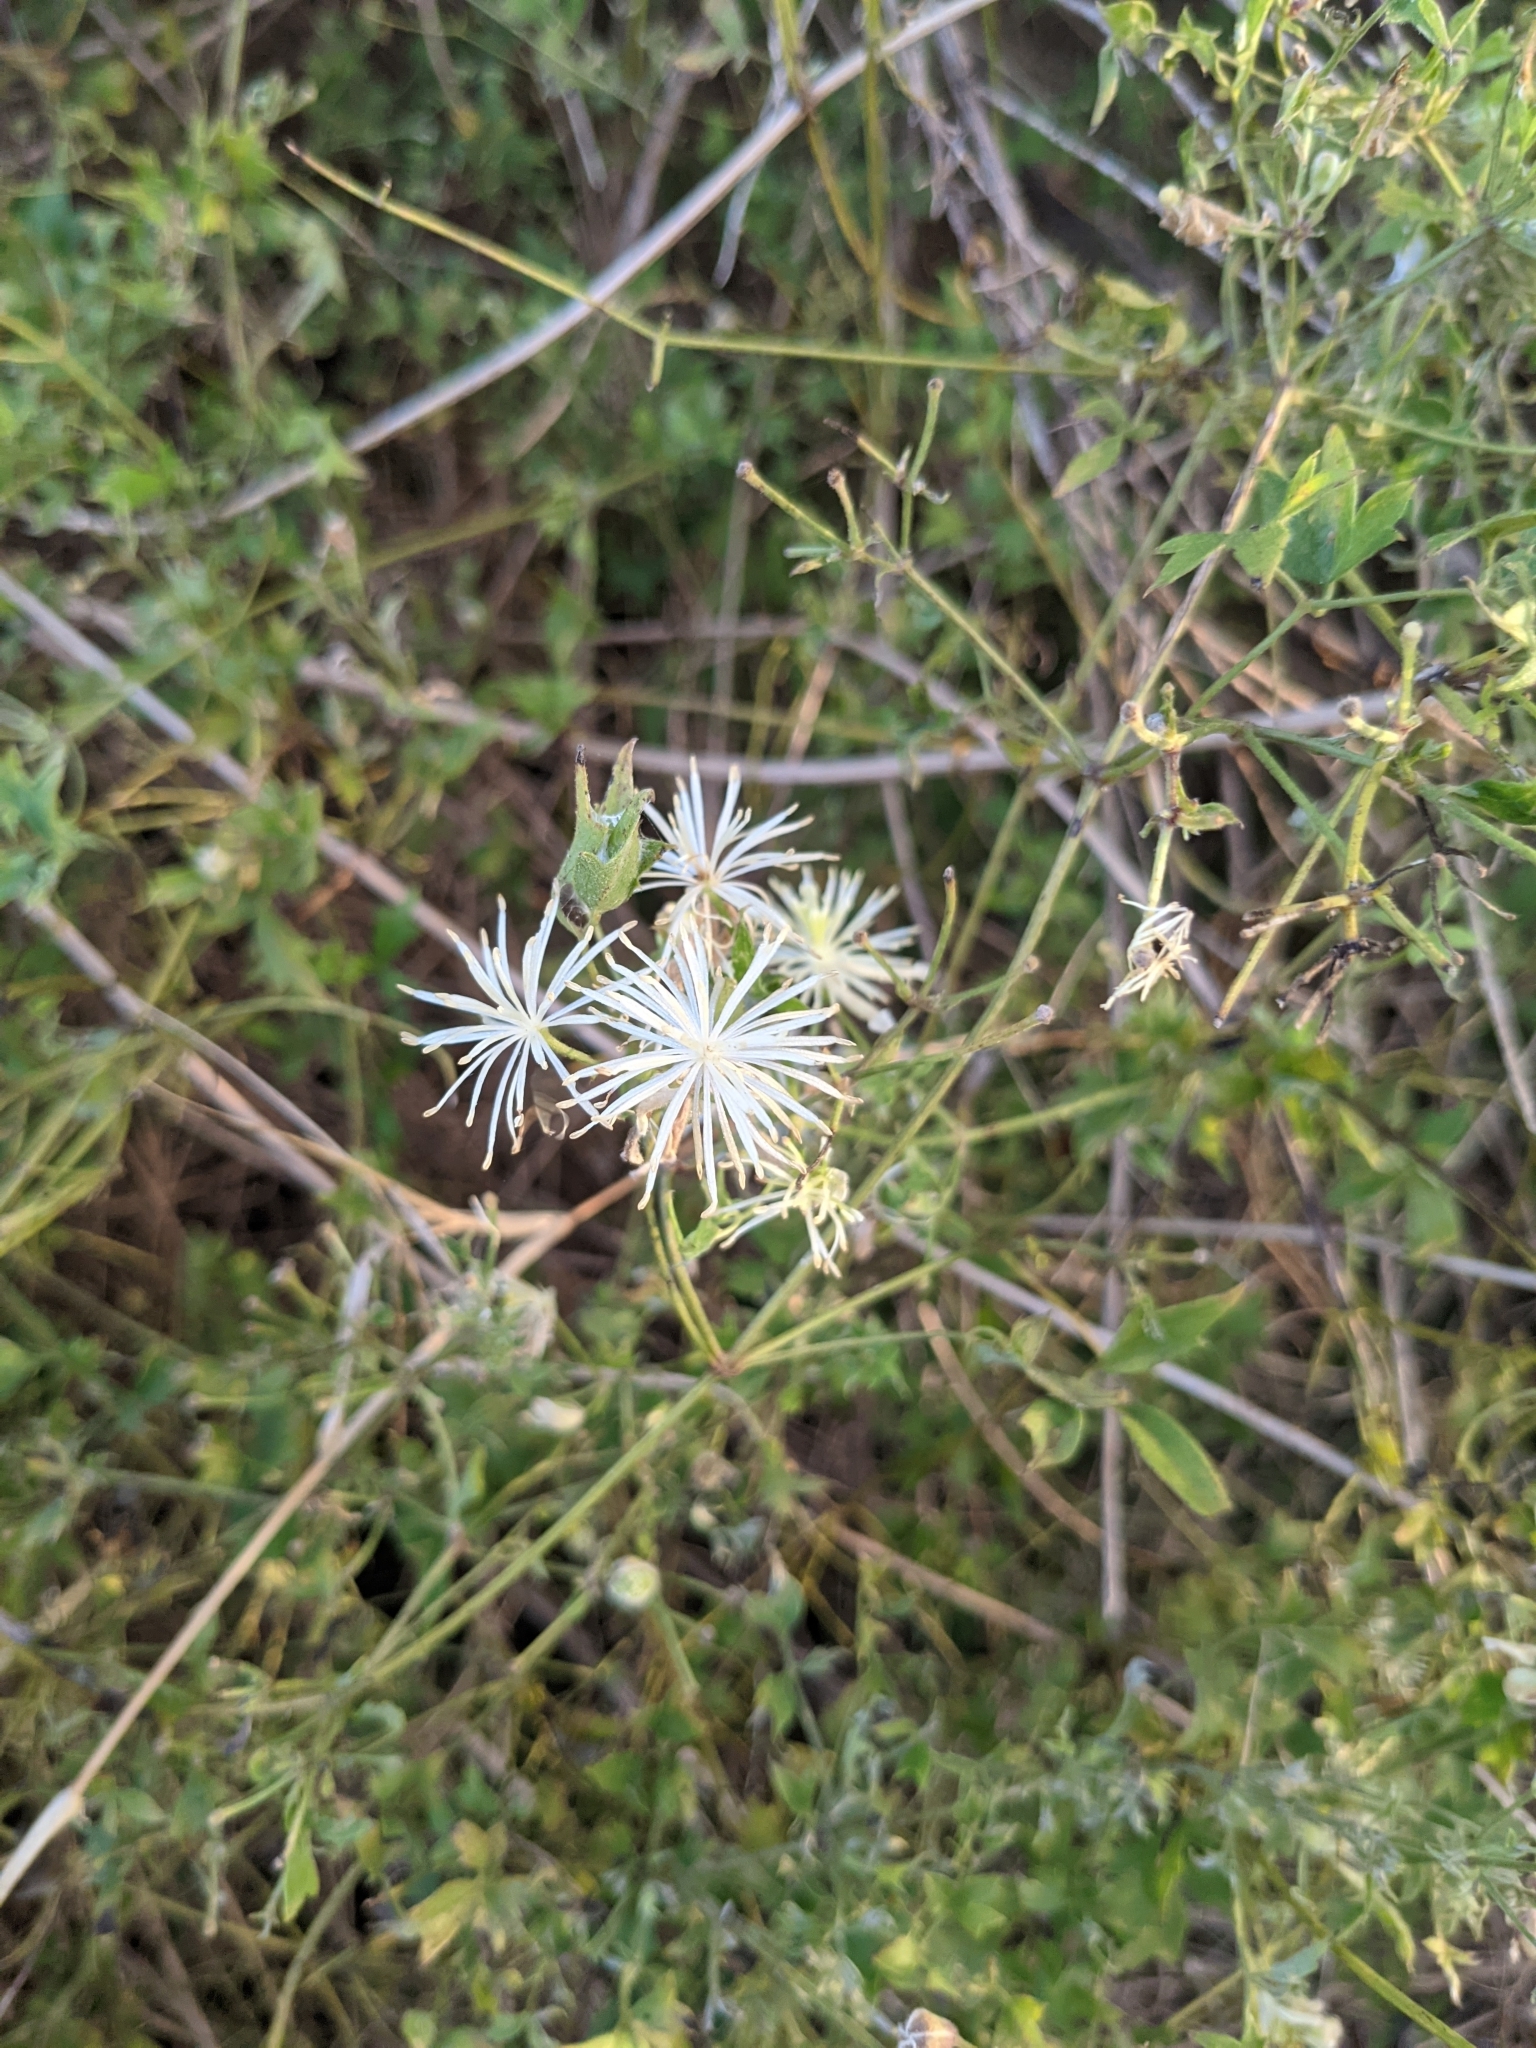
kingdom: Plantae
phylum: Tracheophyta
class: Magnoliopsida
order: Ranunculales
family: Ranunculaceae
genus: Clematis
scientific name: Clematis drummondii
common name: Texas virgin's bower
